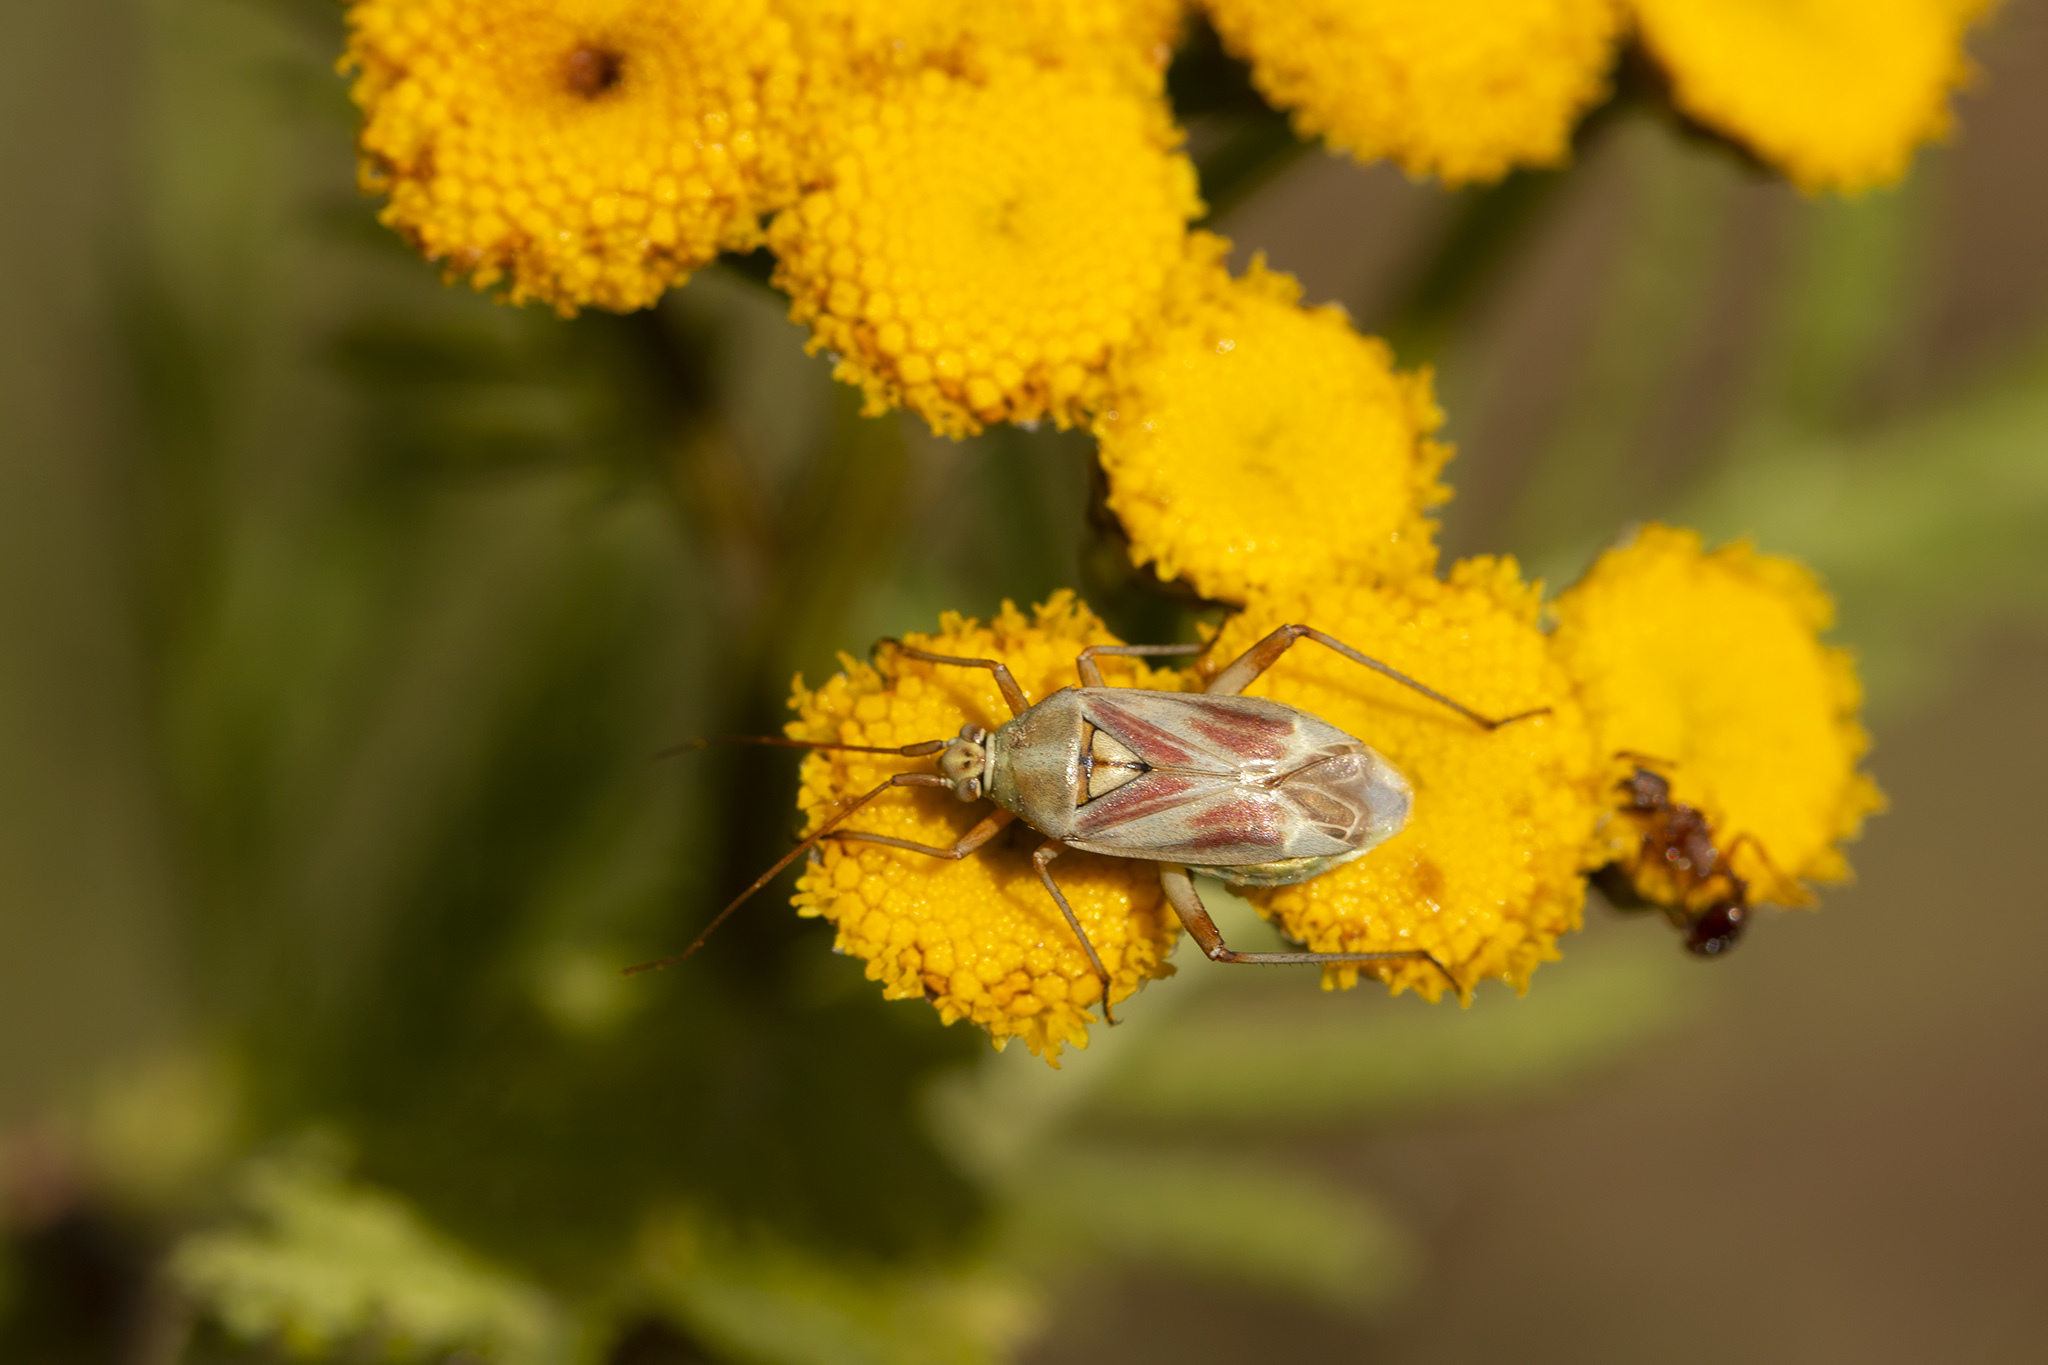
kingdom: Animalia
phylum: Arthropoda
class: Insecta
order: Hemiptera
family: Miridae
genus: Calocoris
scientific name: Calocoris roseomaculatus
